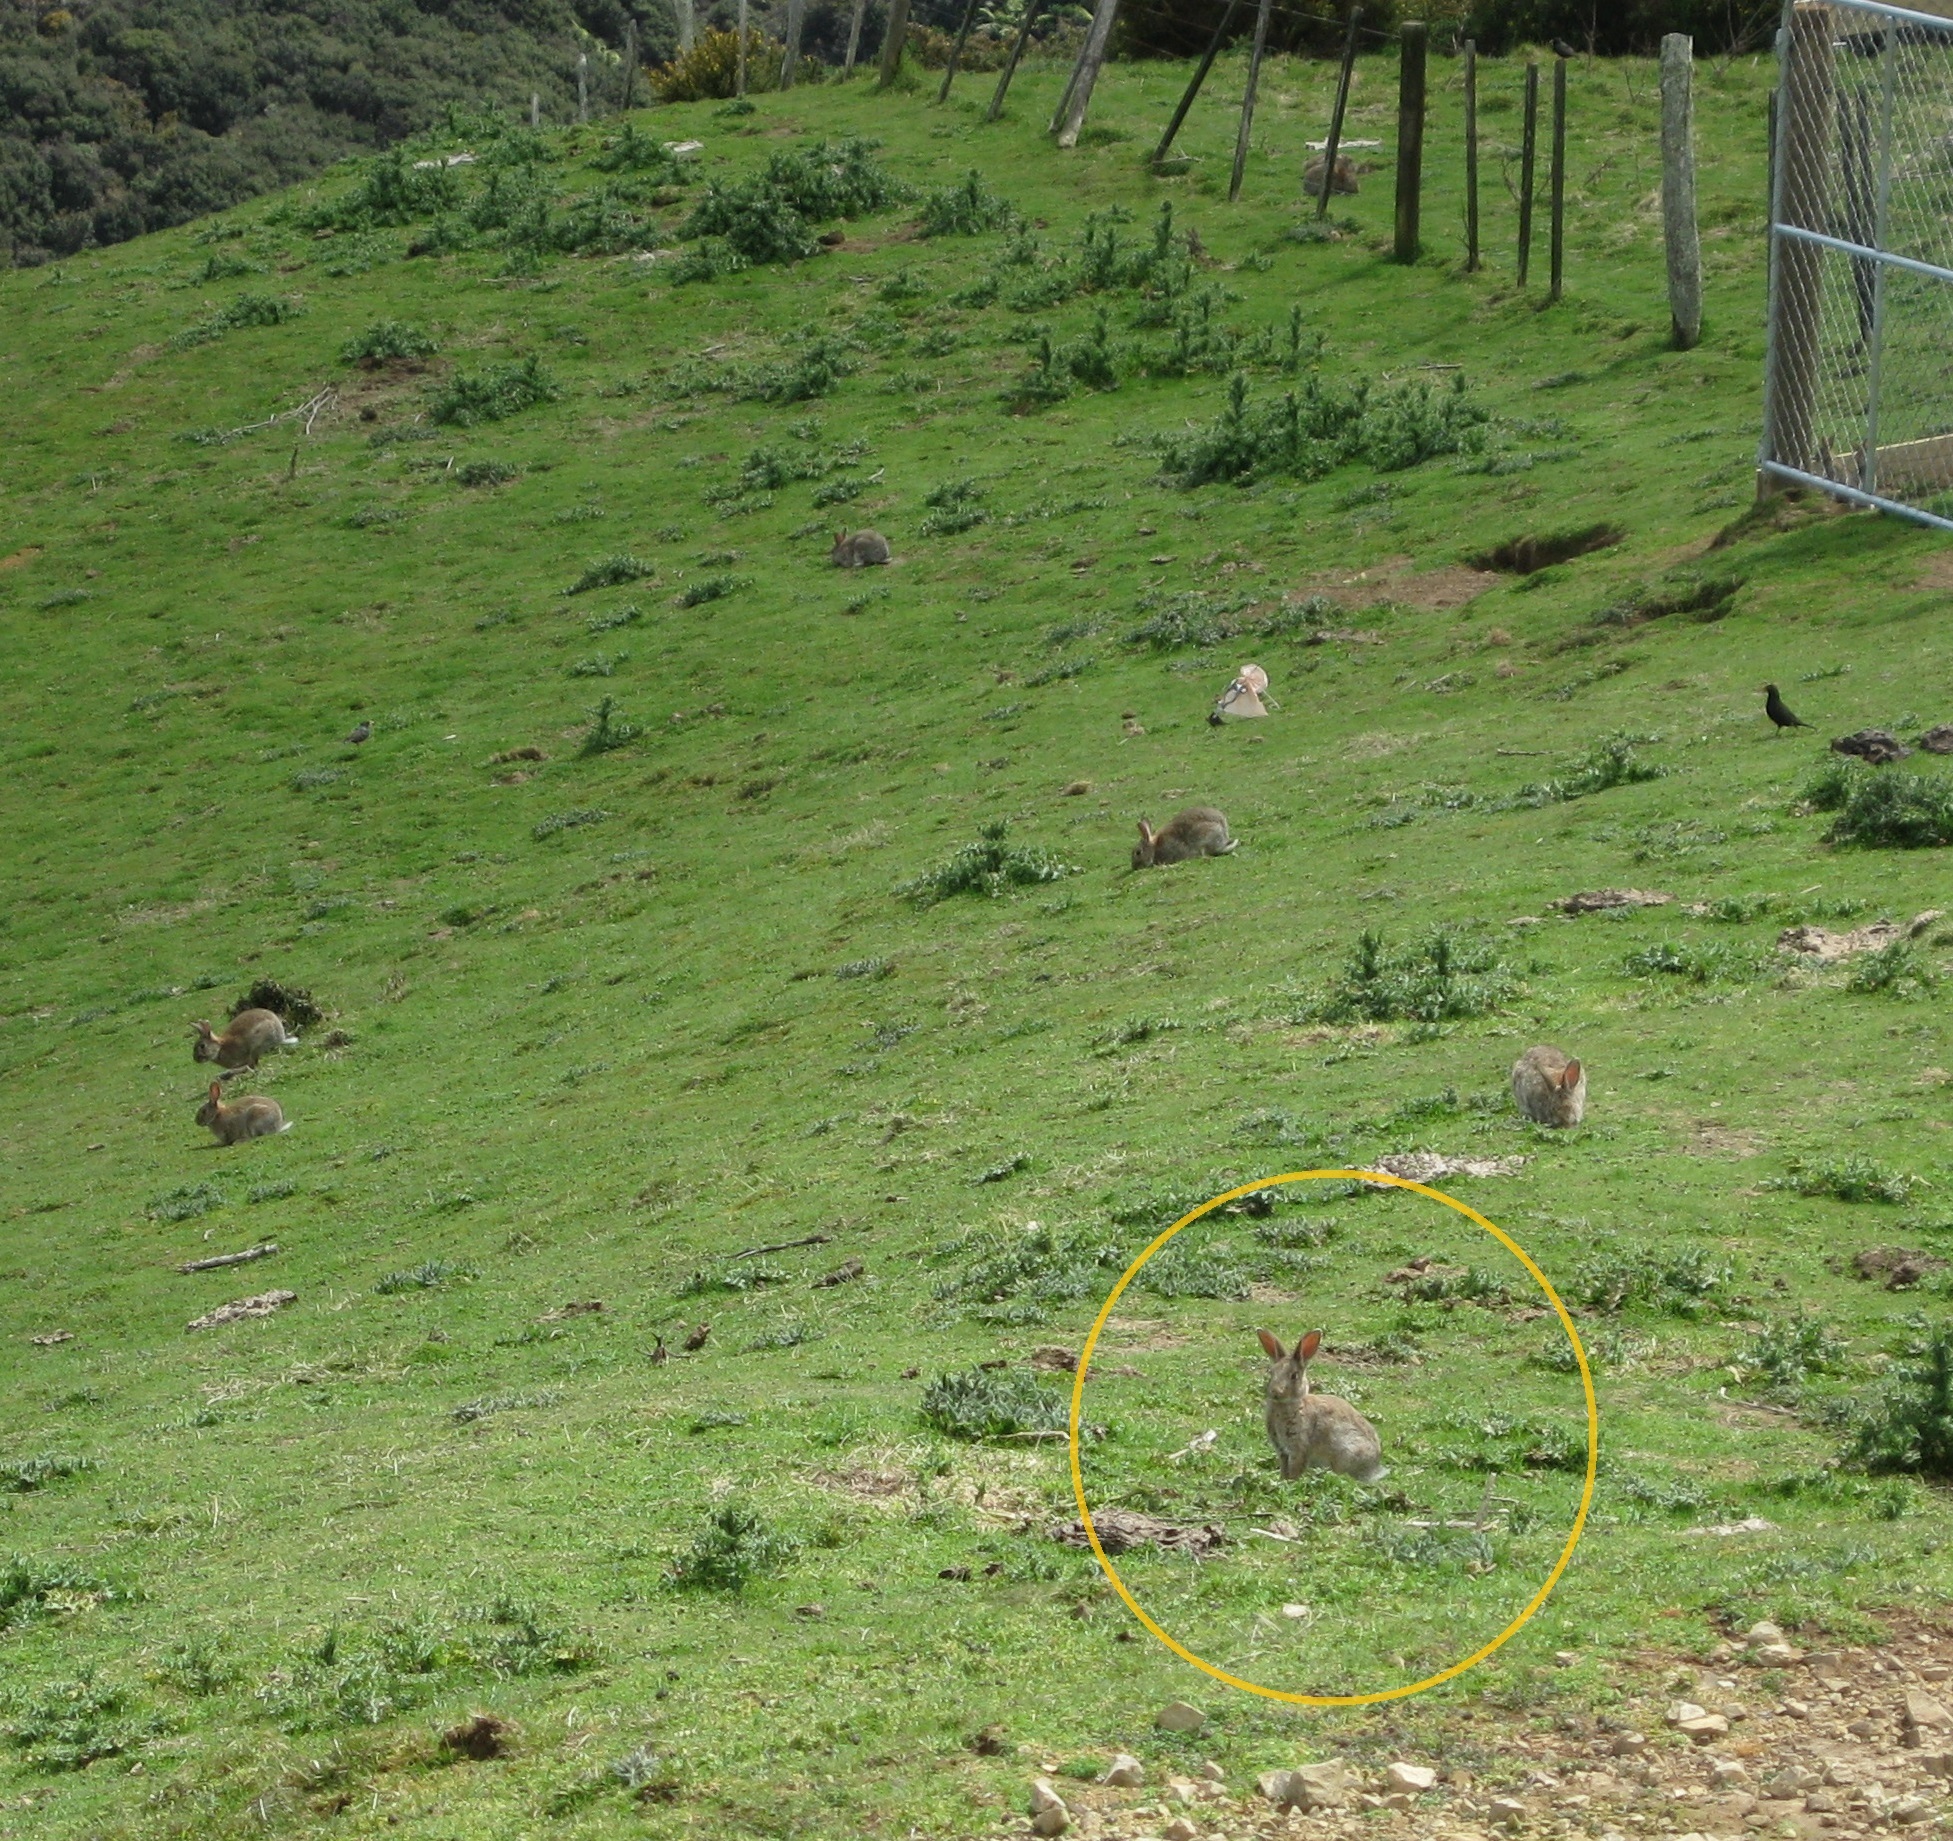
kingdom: Animalia
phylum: Chordata
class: Mammalia
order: Lagomorpha
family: Leporidae
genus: Oryctolagus
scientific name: Oryctolagus cuniculus
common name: European rabbit
